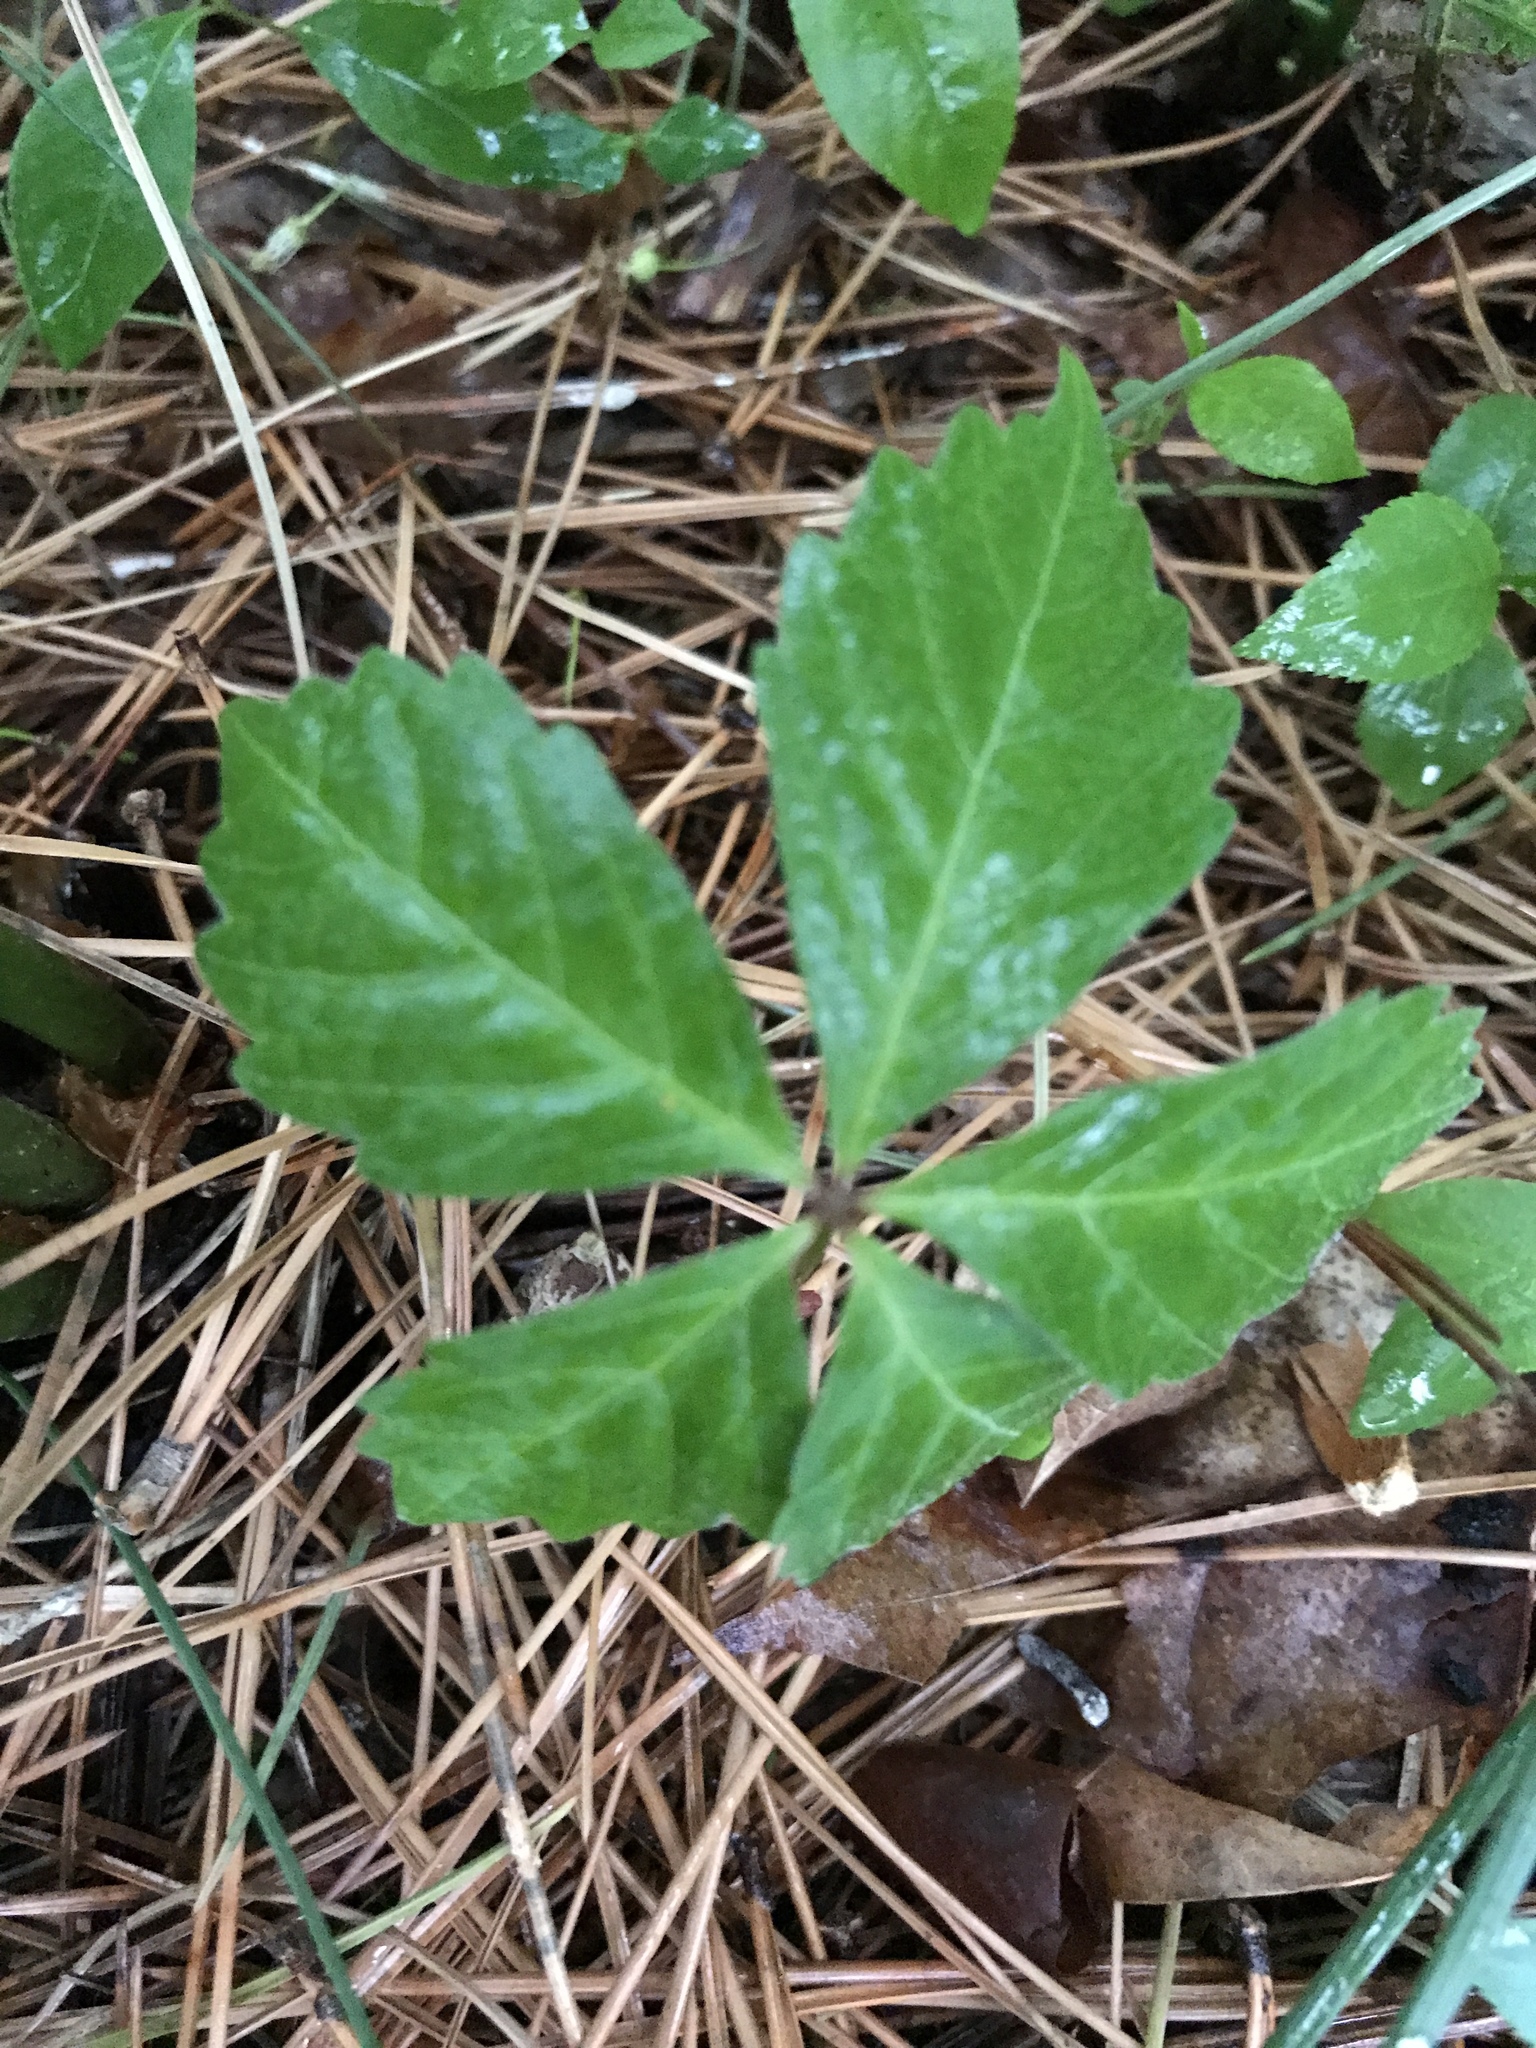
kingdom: Plantae
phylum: Tracheophyta
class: Magnoliopsida
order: Vitales
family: Vitaceae
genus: Parthenocissus
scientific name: Parthenocissus quinquefolia
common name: Virginia-creeper
